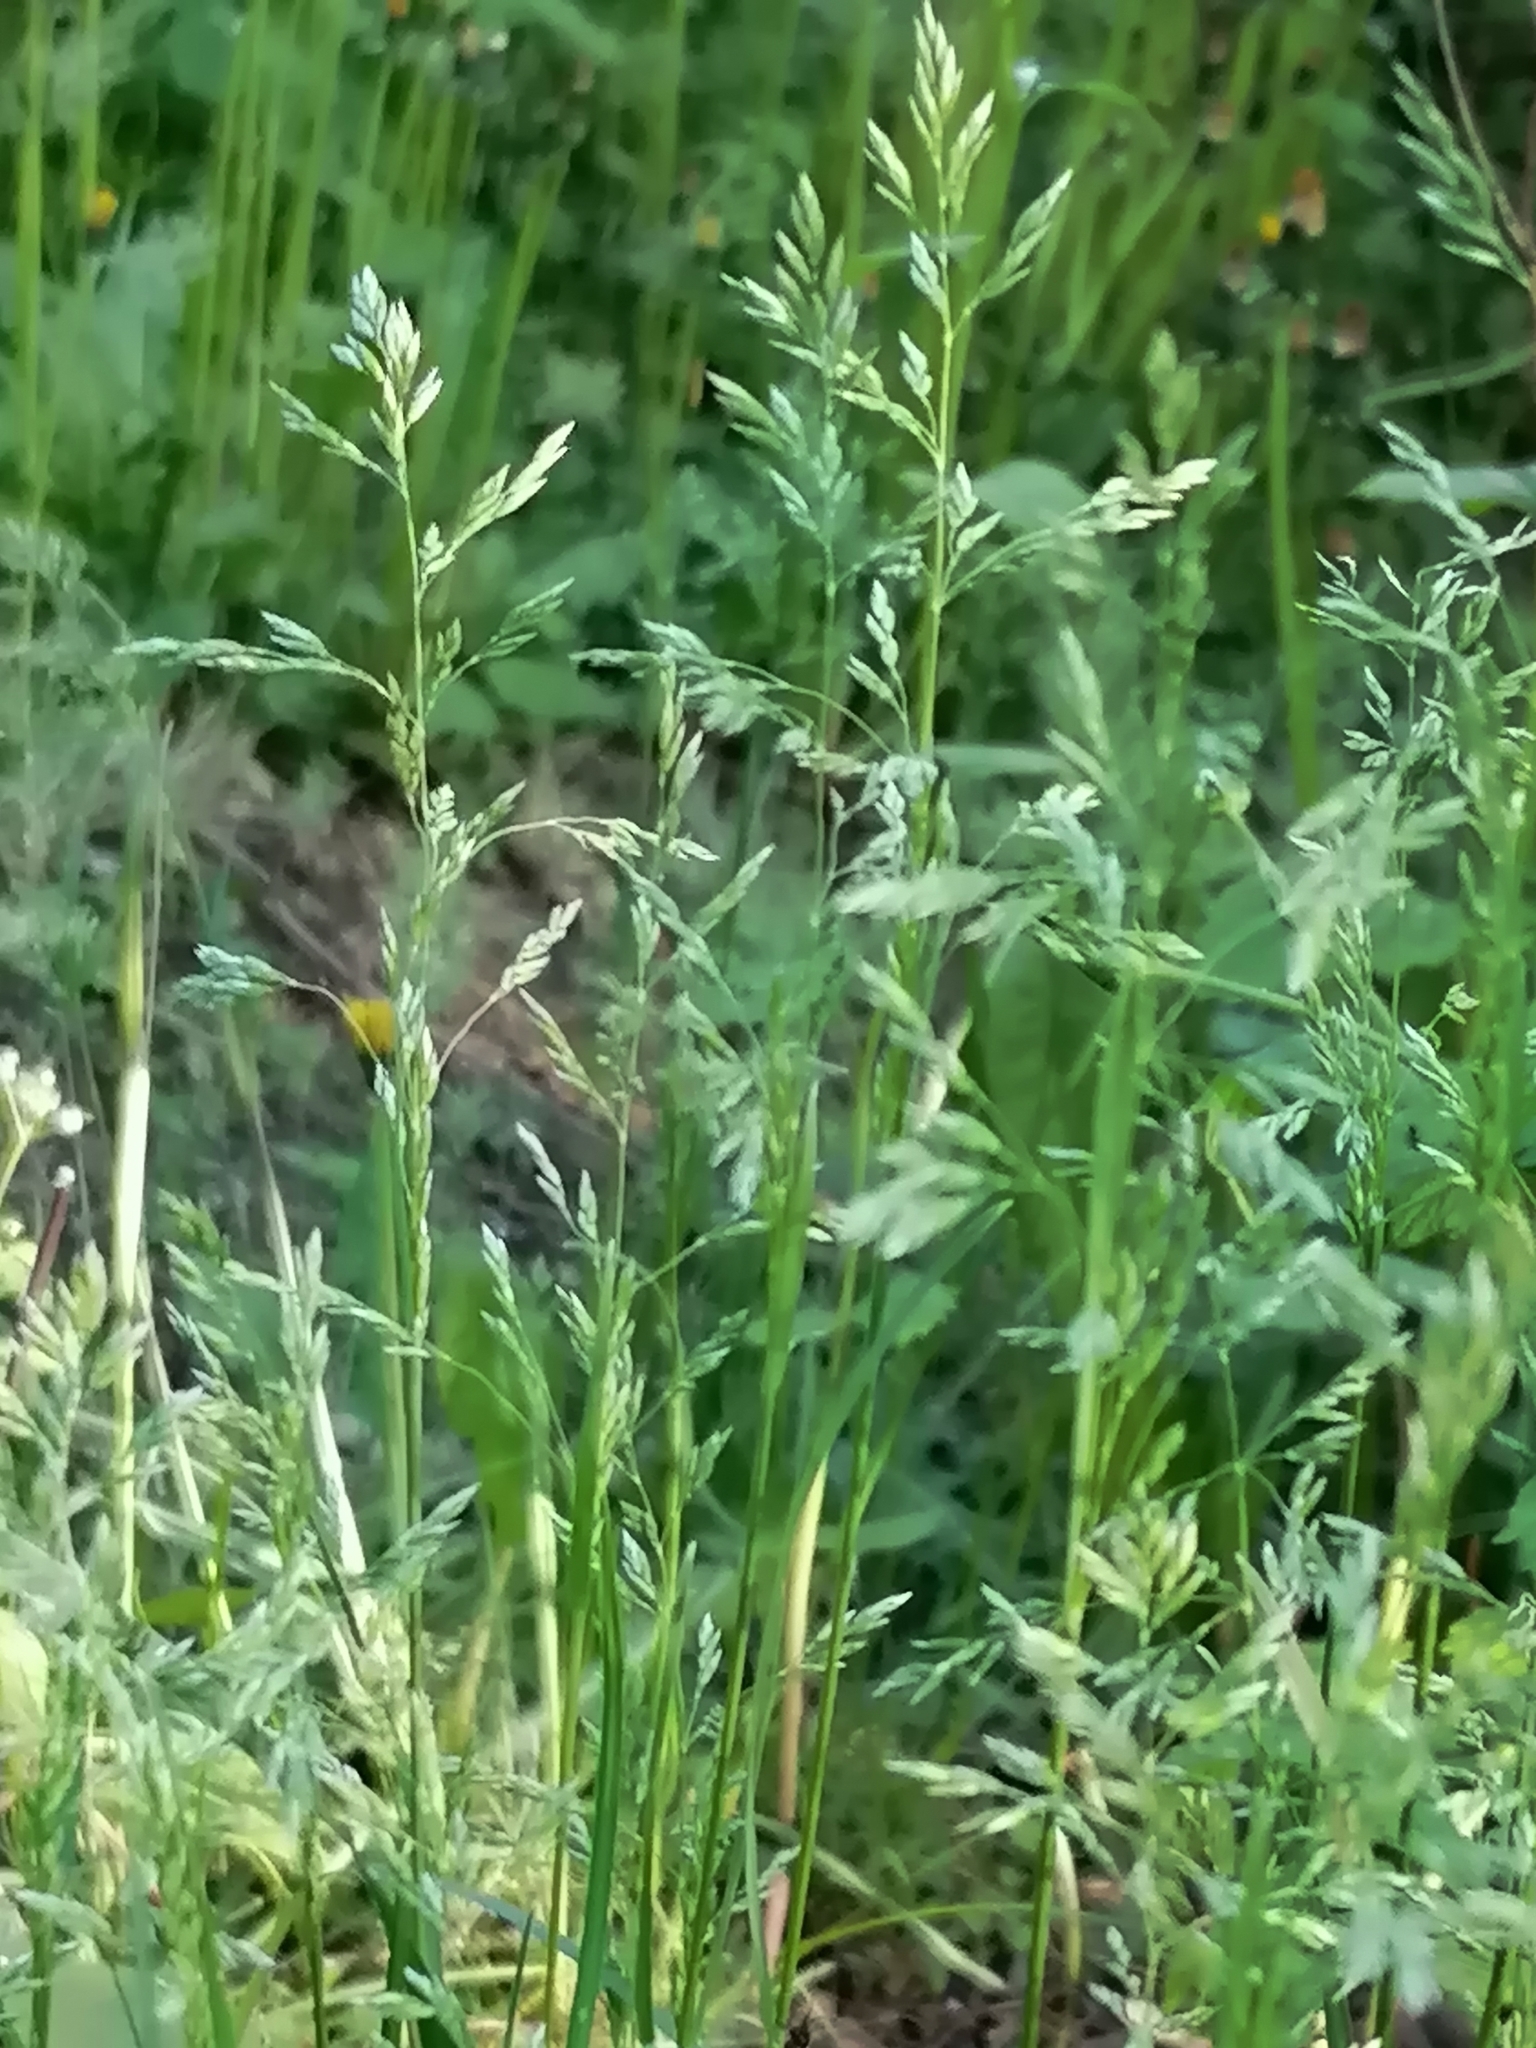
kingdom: Plantae
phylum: Tracheophyta
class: Liliopsida
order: Poales
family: Poaceae
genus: Poa
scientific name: Poa pratensis
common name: Kentucky bluegrass
